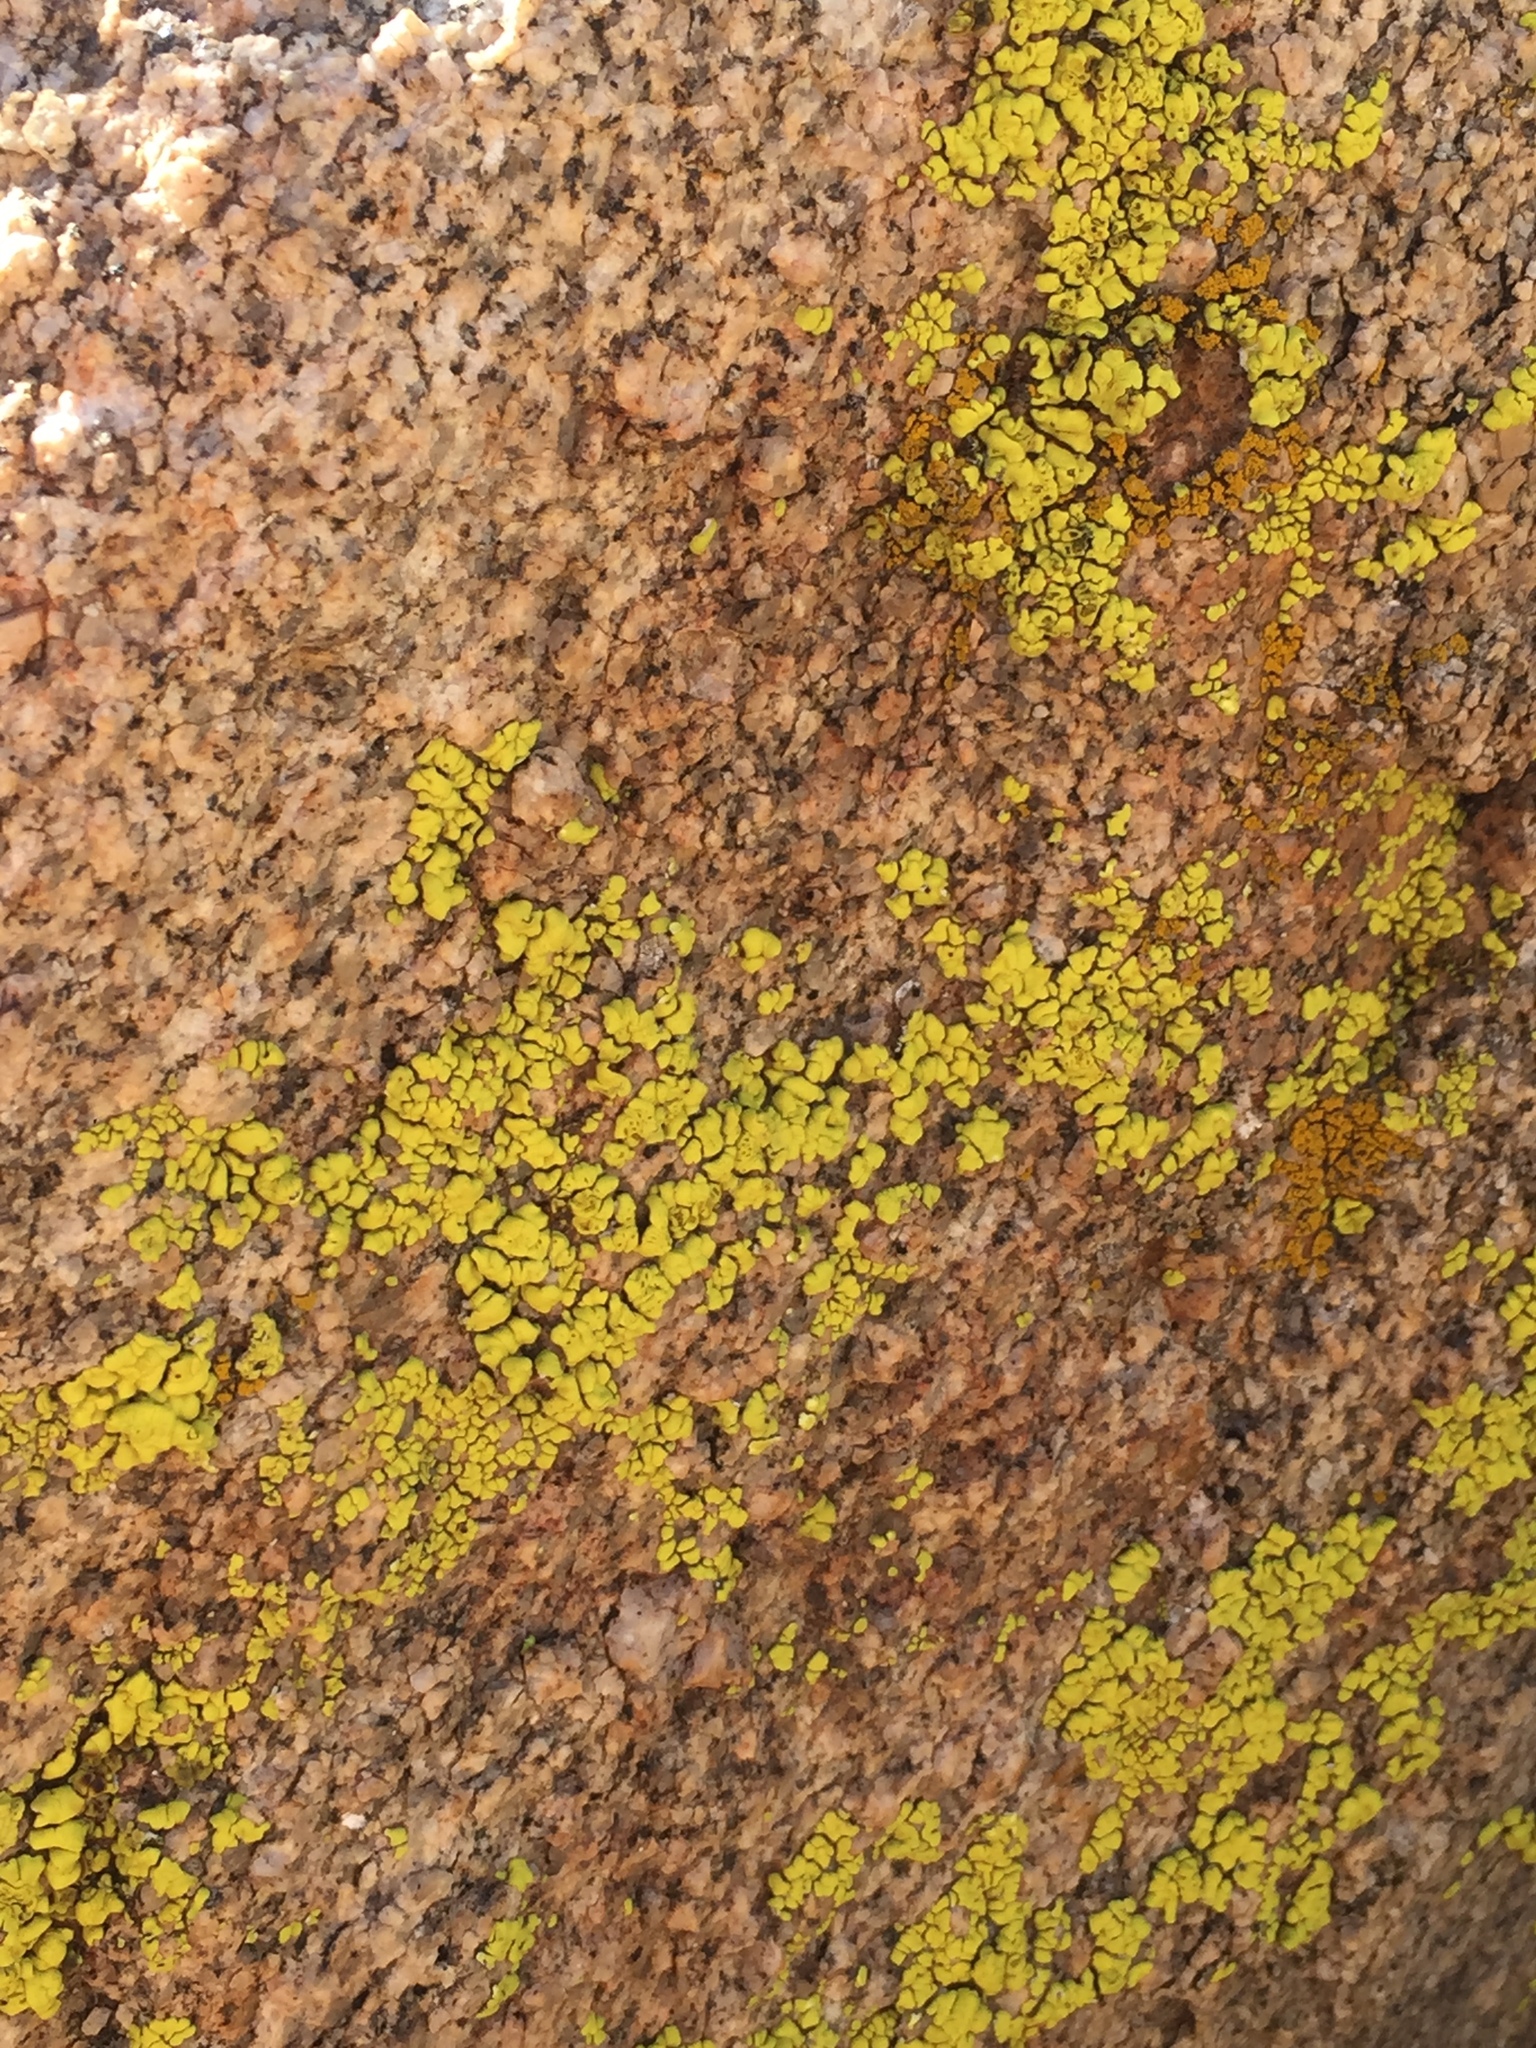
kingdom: Fungi
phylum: Ascomycota
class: Lecanoromycetes
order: Acarosporales
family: Acarosporaceae
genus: Acarospora
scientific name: Acarospora socialis
